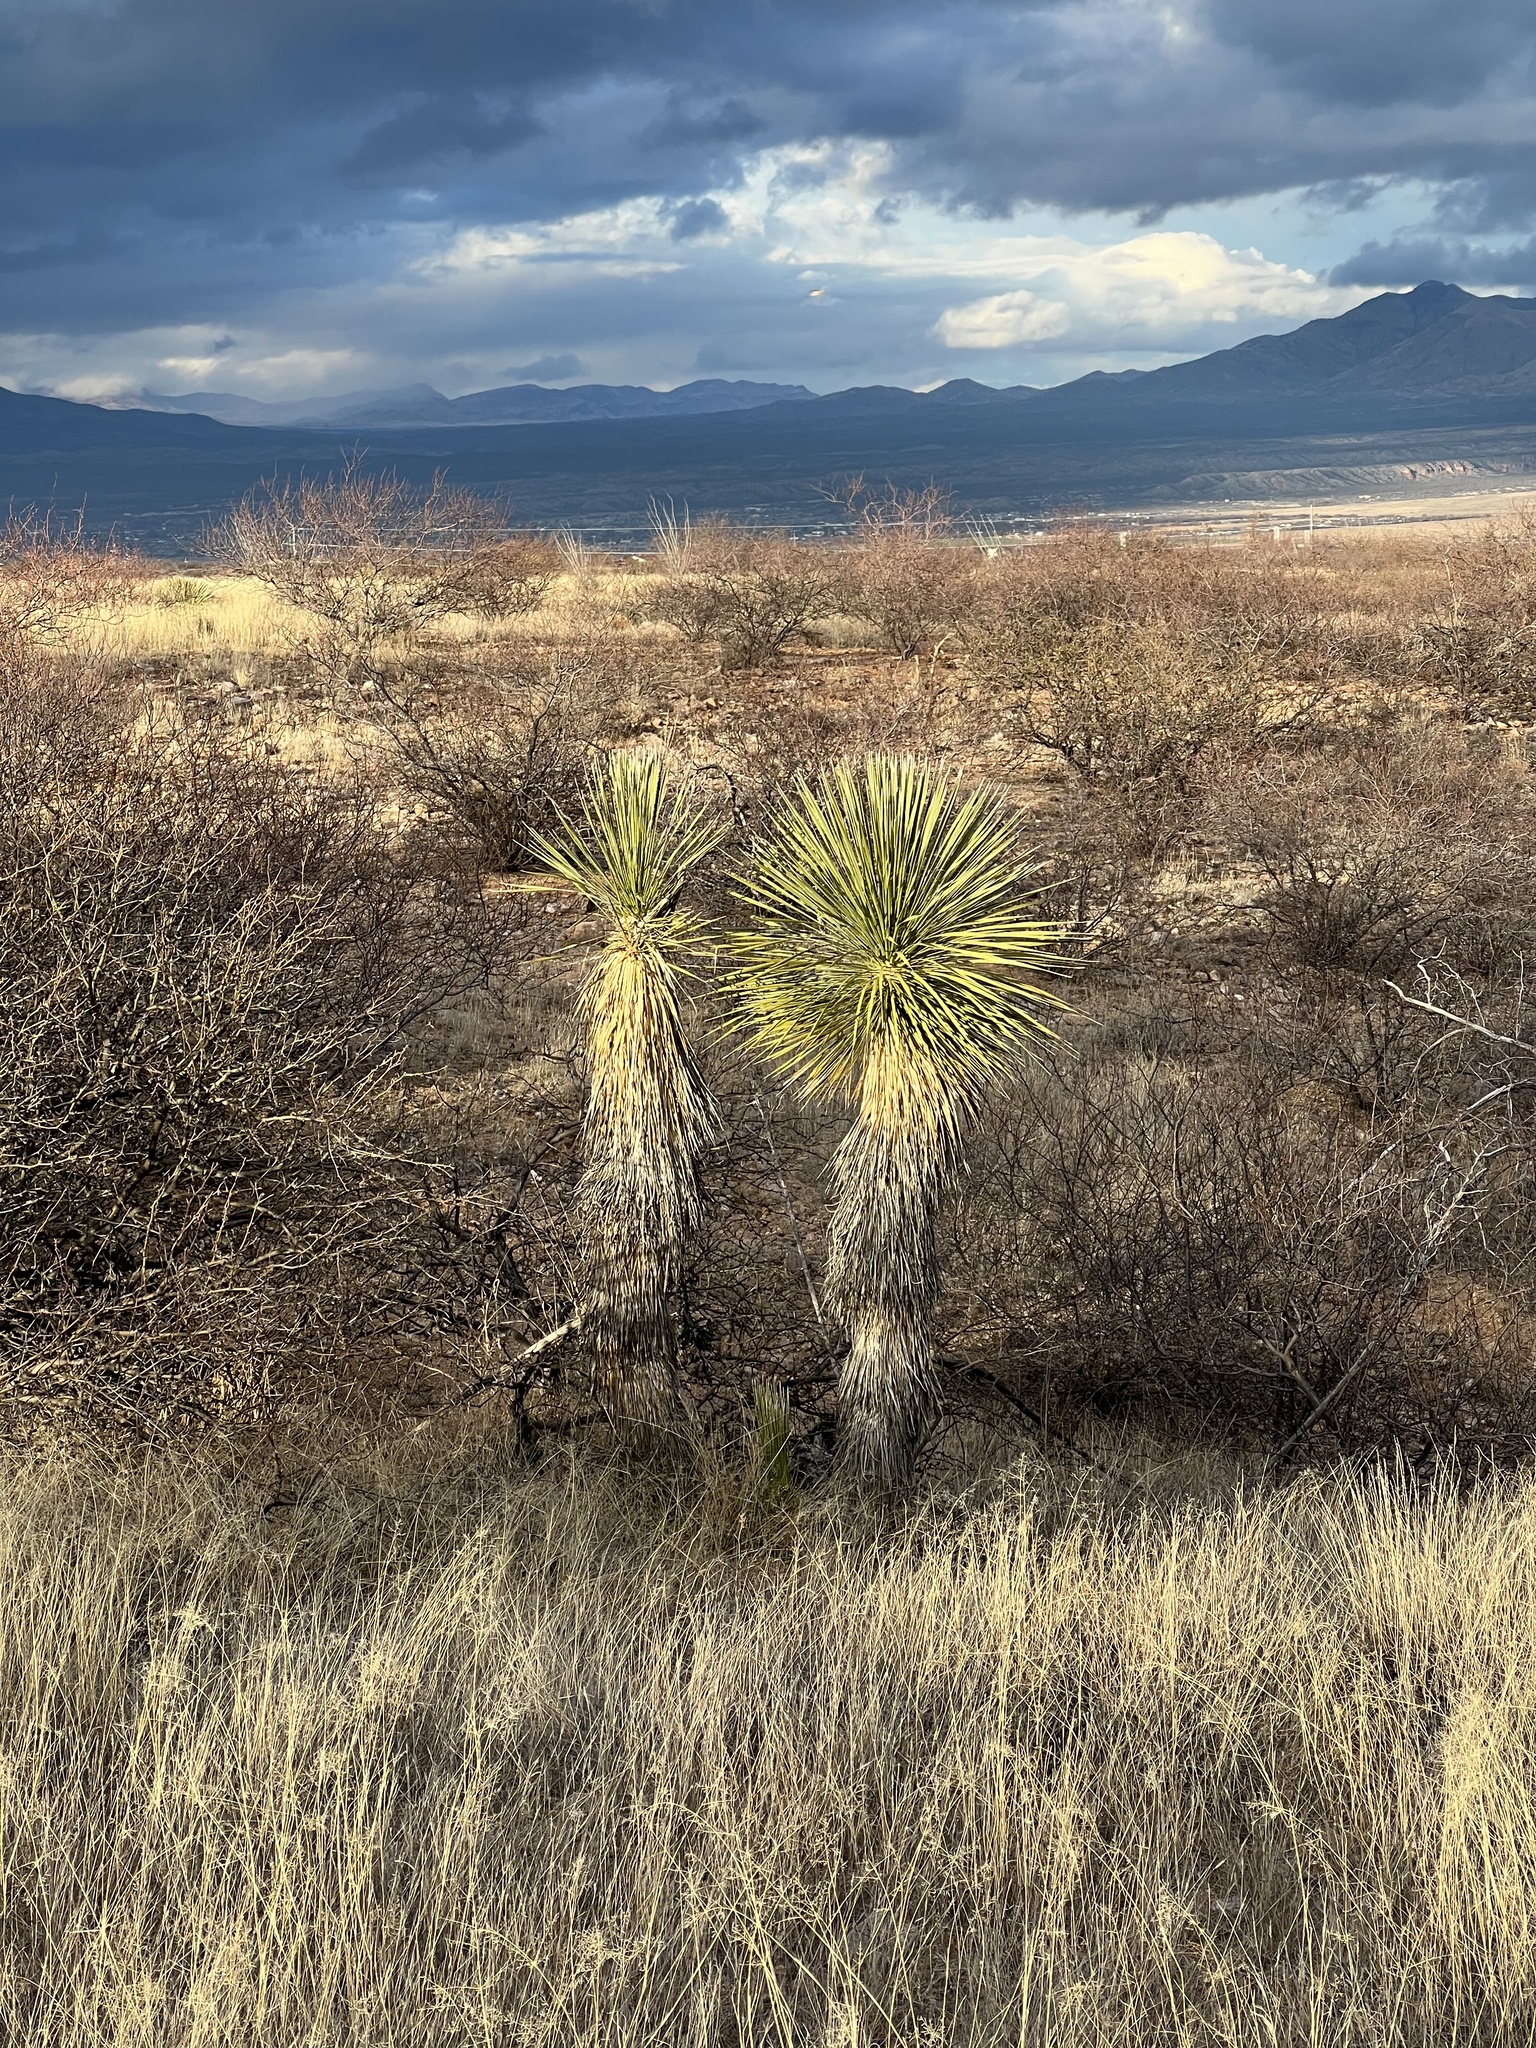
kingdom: Plantae
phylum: Tracheophyta
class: Liliopsida
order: Asparagales
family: Asparagaceae
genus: Yucca
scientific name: Yucca elata
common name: Palmella
